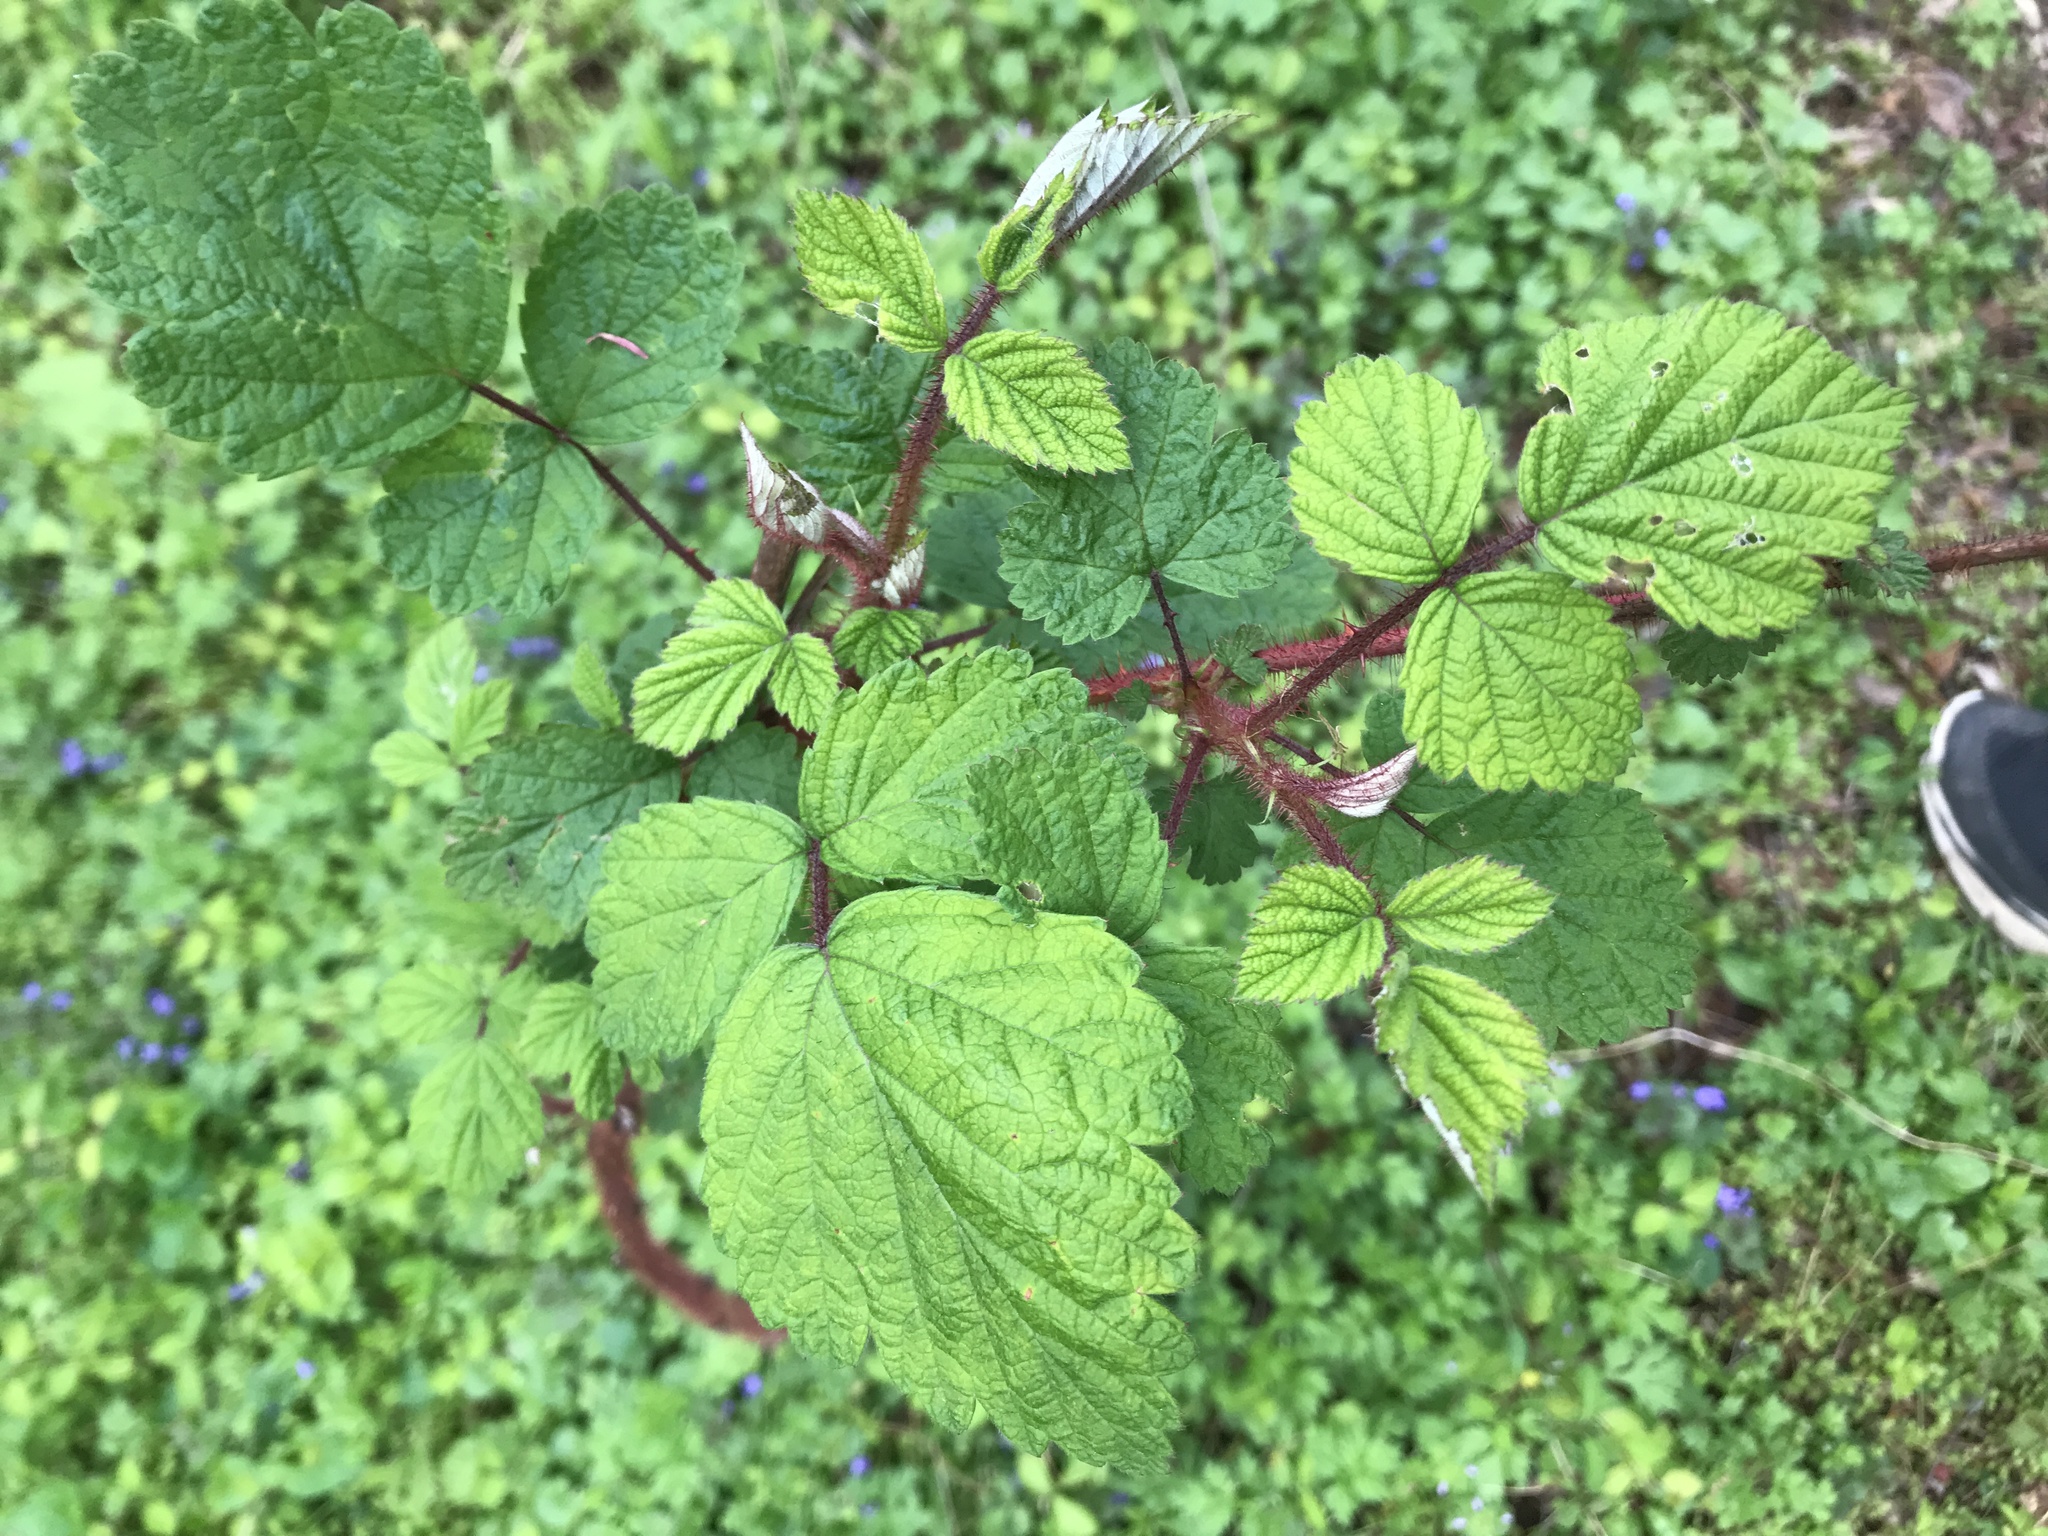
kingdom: Plantae
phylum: Tracheophyta
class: Magnoliopsida
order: Rosales
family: Rosaceae
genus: Rubus
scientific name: Rubus phoenicolasius
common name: Japanese wineberry
